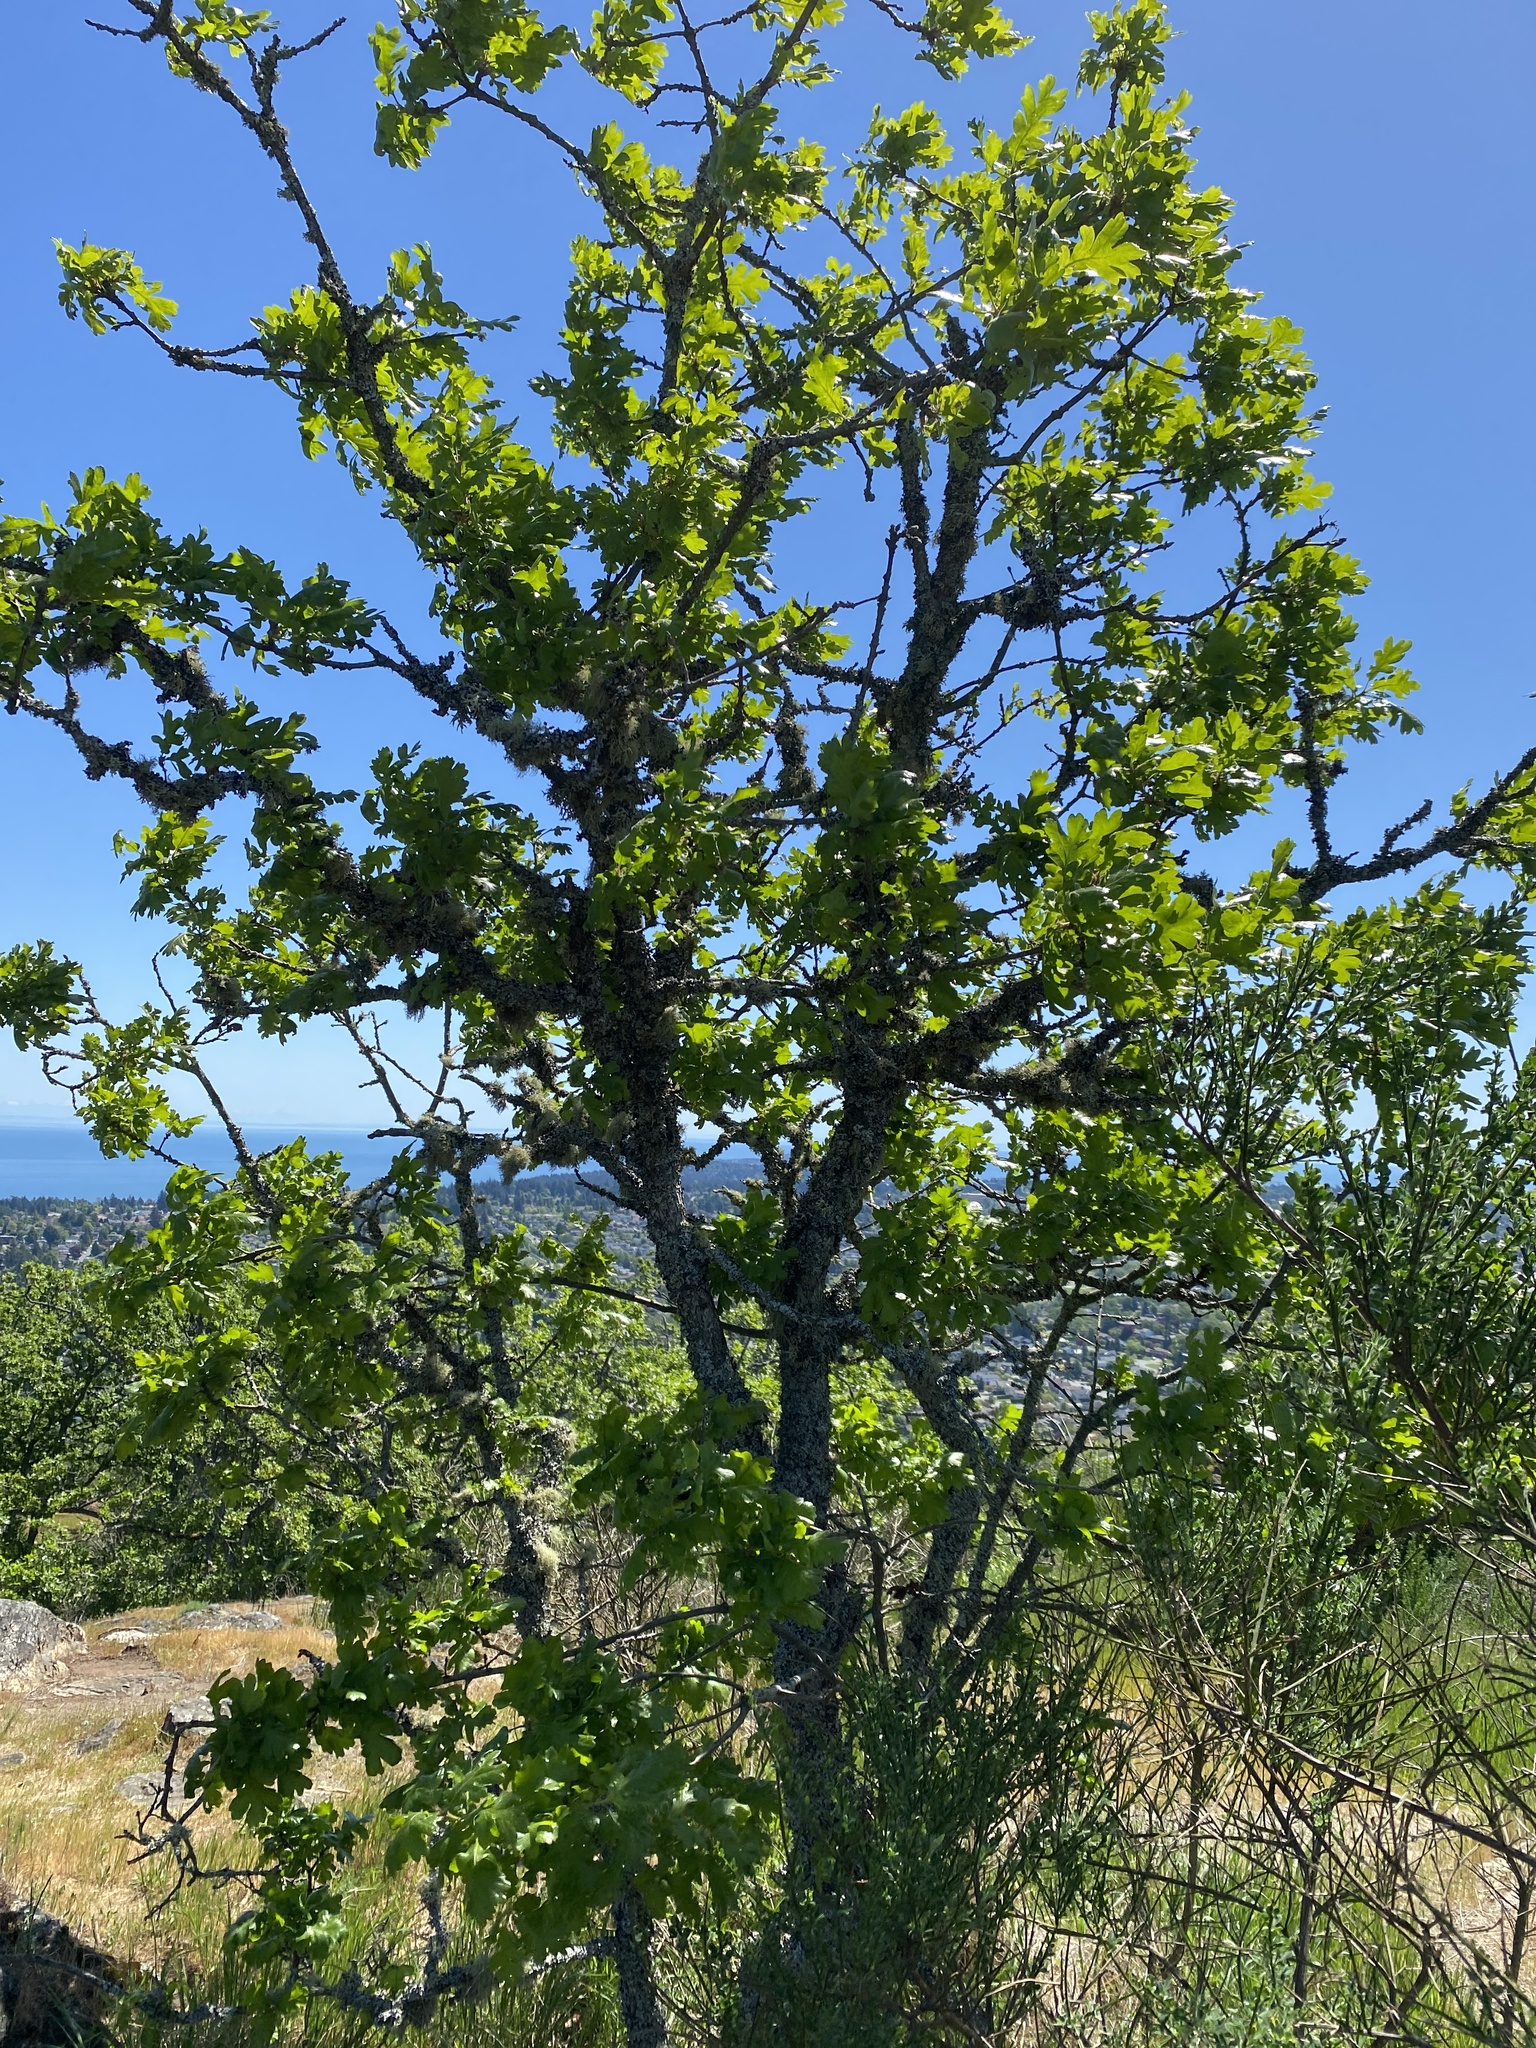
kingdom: Plantae
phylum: Tracheophyta
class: Magnoliopsida
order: Fagales
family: Fagaceae
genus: Quercus
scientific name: Quercus garryana
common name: Garry oak
